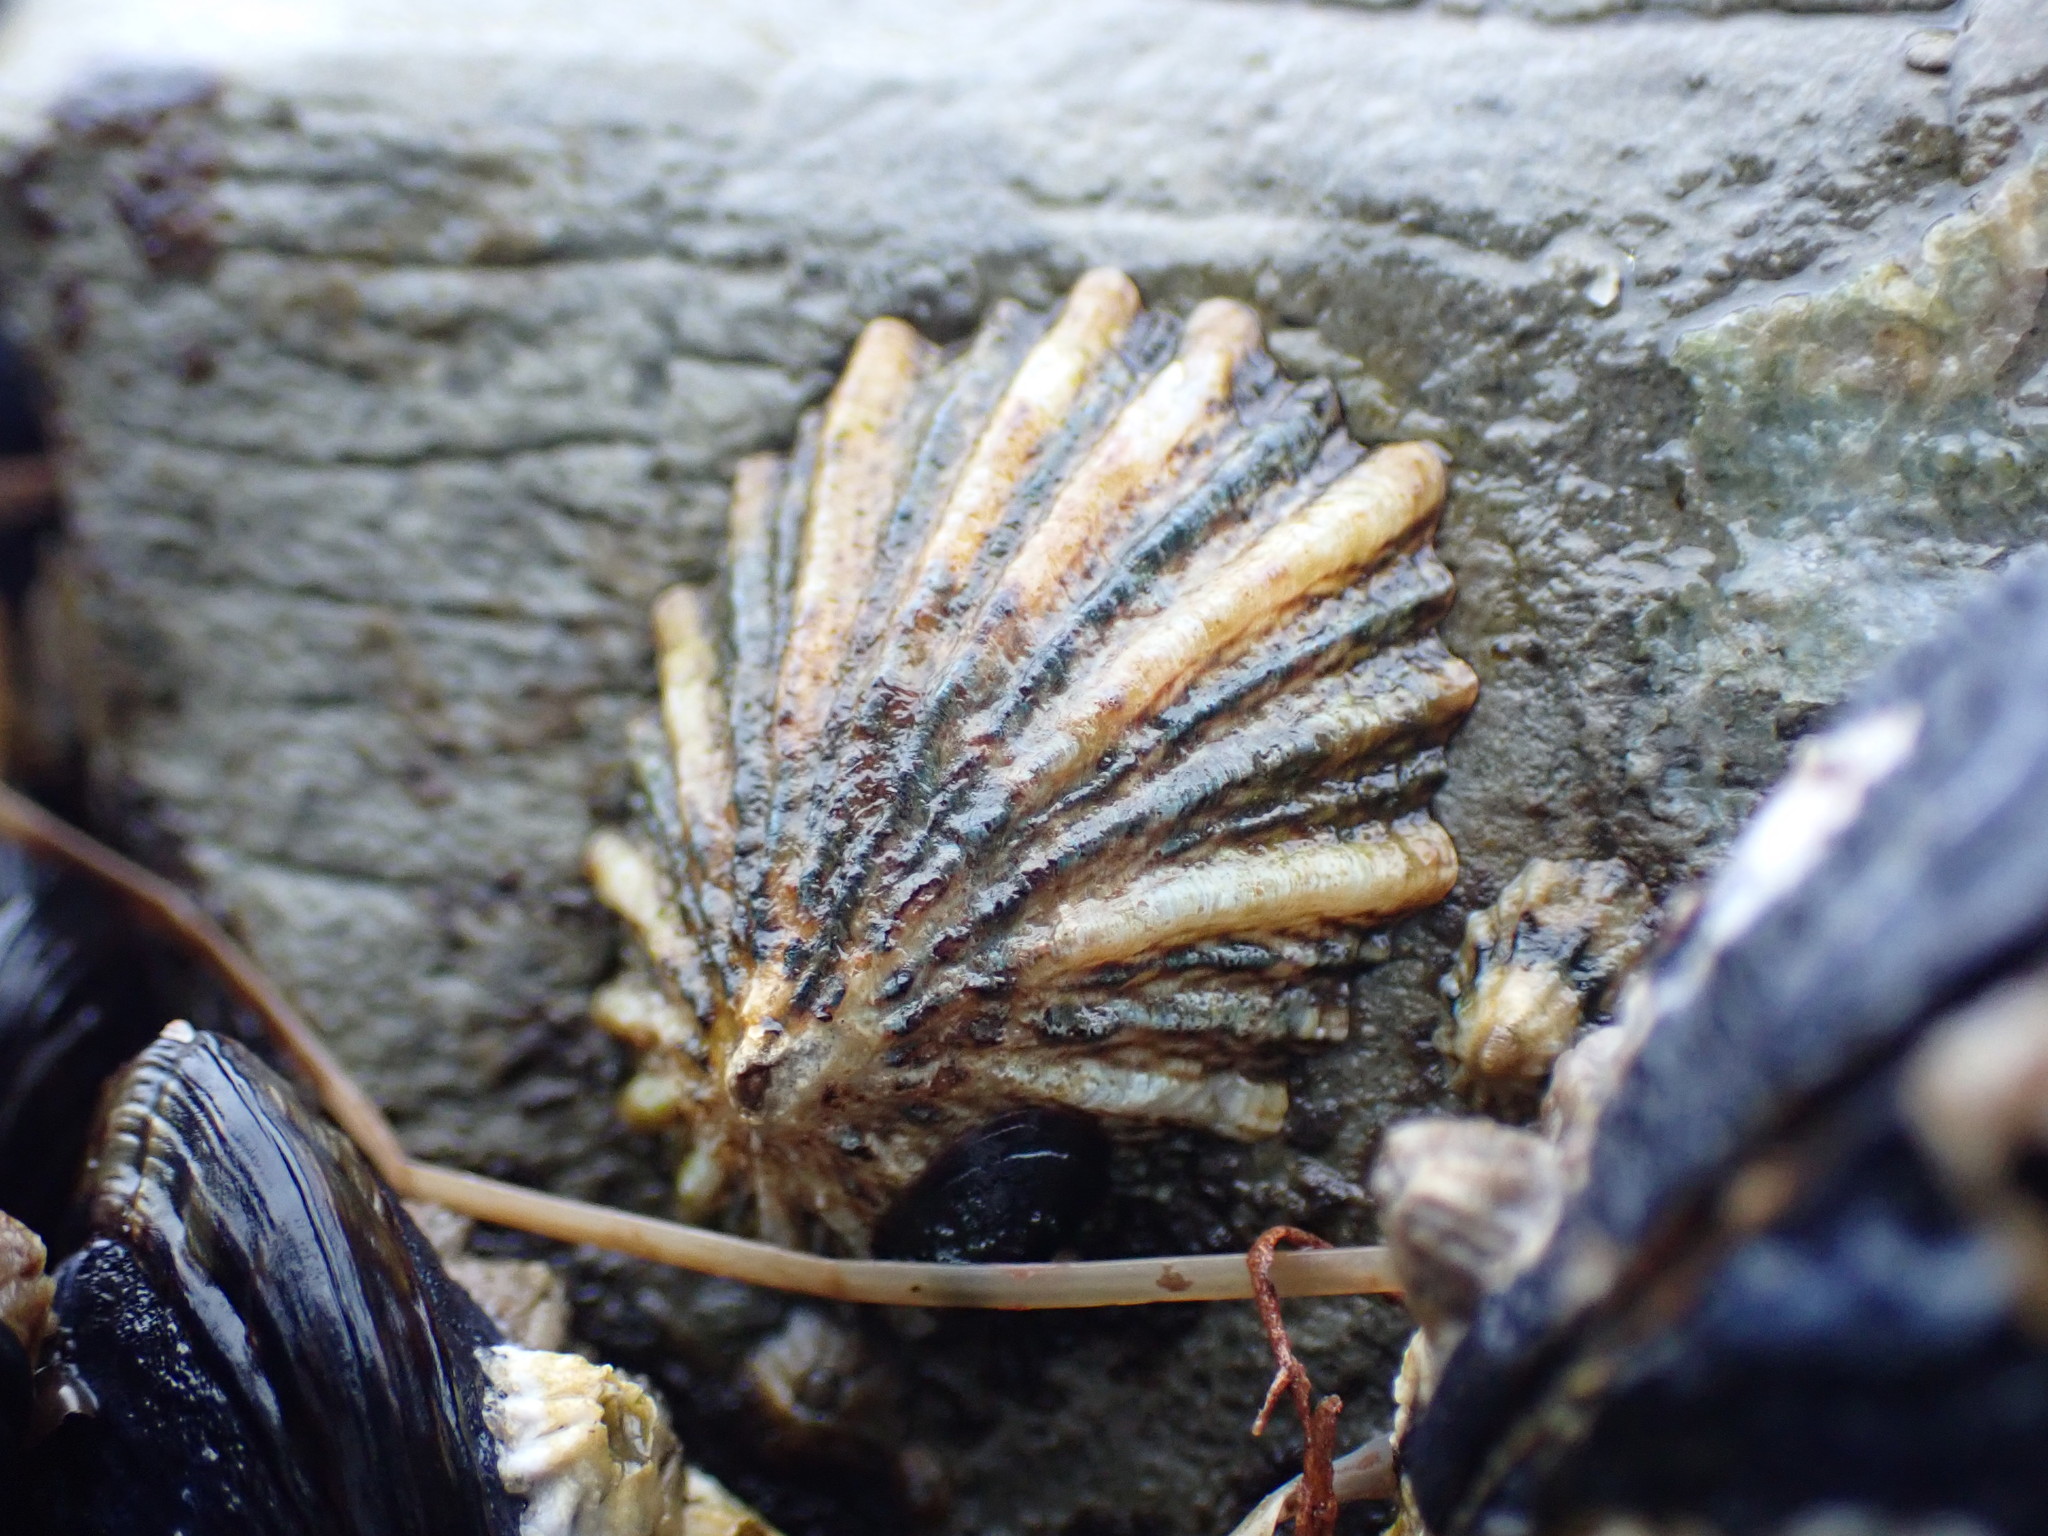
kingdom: Animalia
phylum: Mollusca
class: Gastropoda
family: Lottiidae
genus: Lottia
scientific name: Lottia scabra
